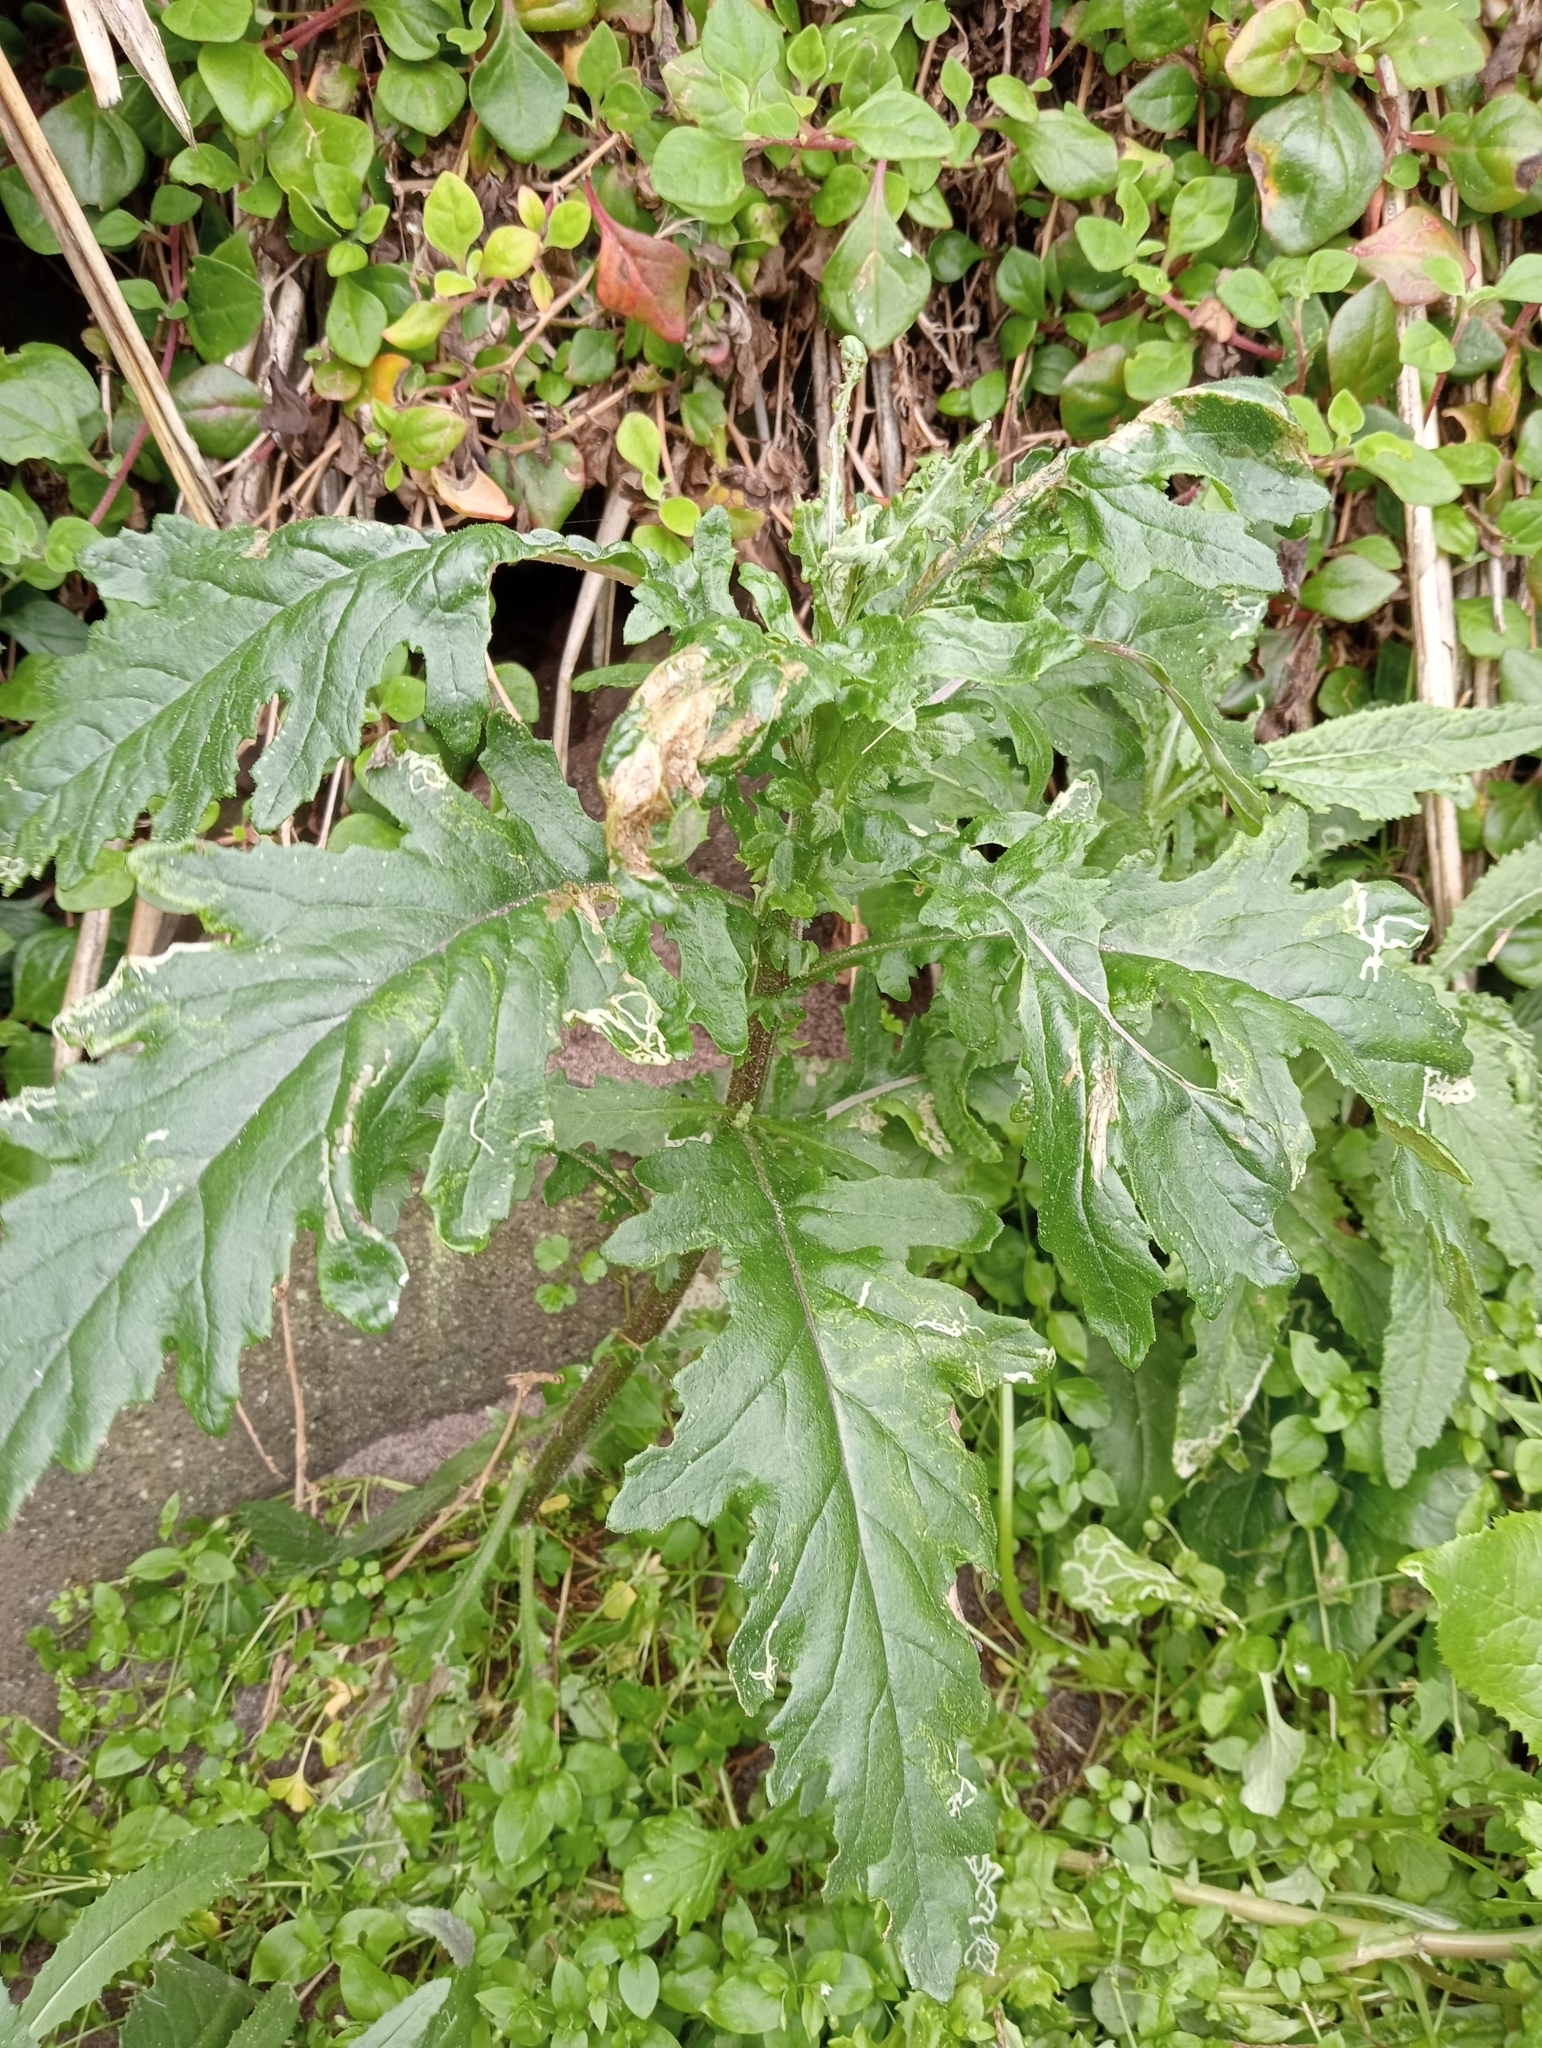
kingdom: Plantae
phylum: Tracheophyta
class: Magnoliopsida
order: Asterales
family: Asteraceae
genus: Senecio
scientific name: Senecio biserratus
